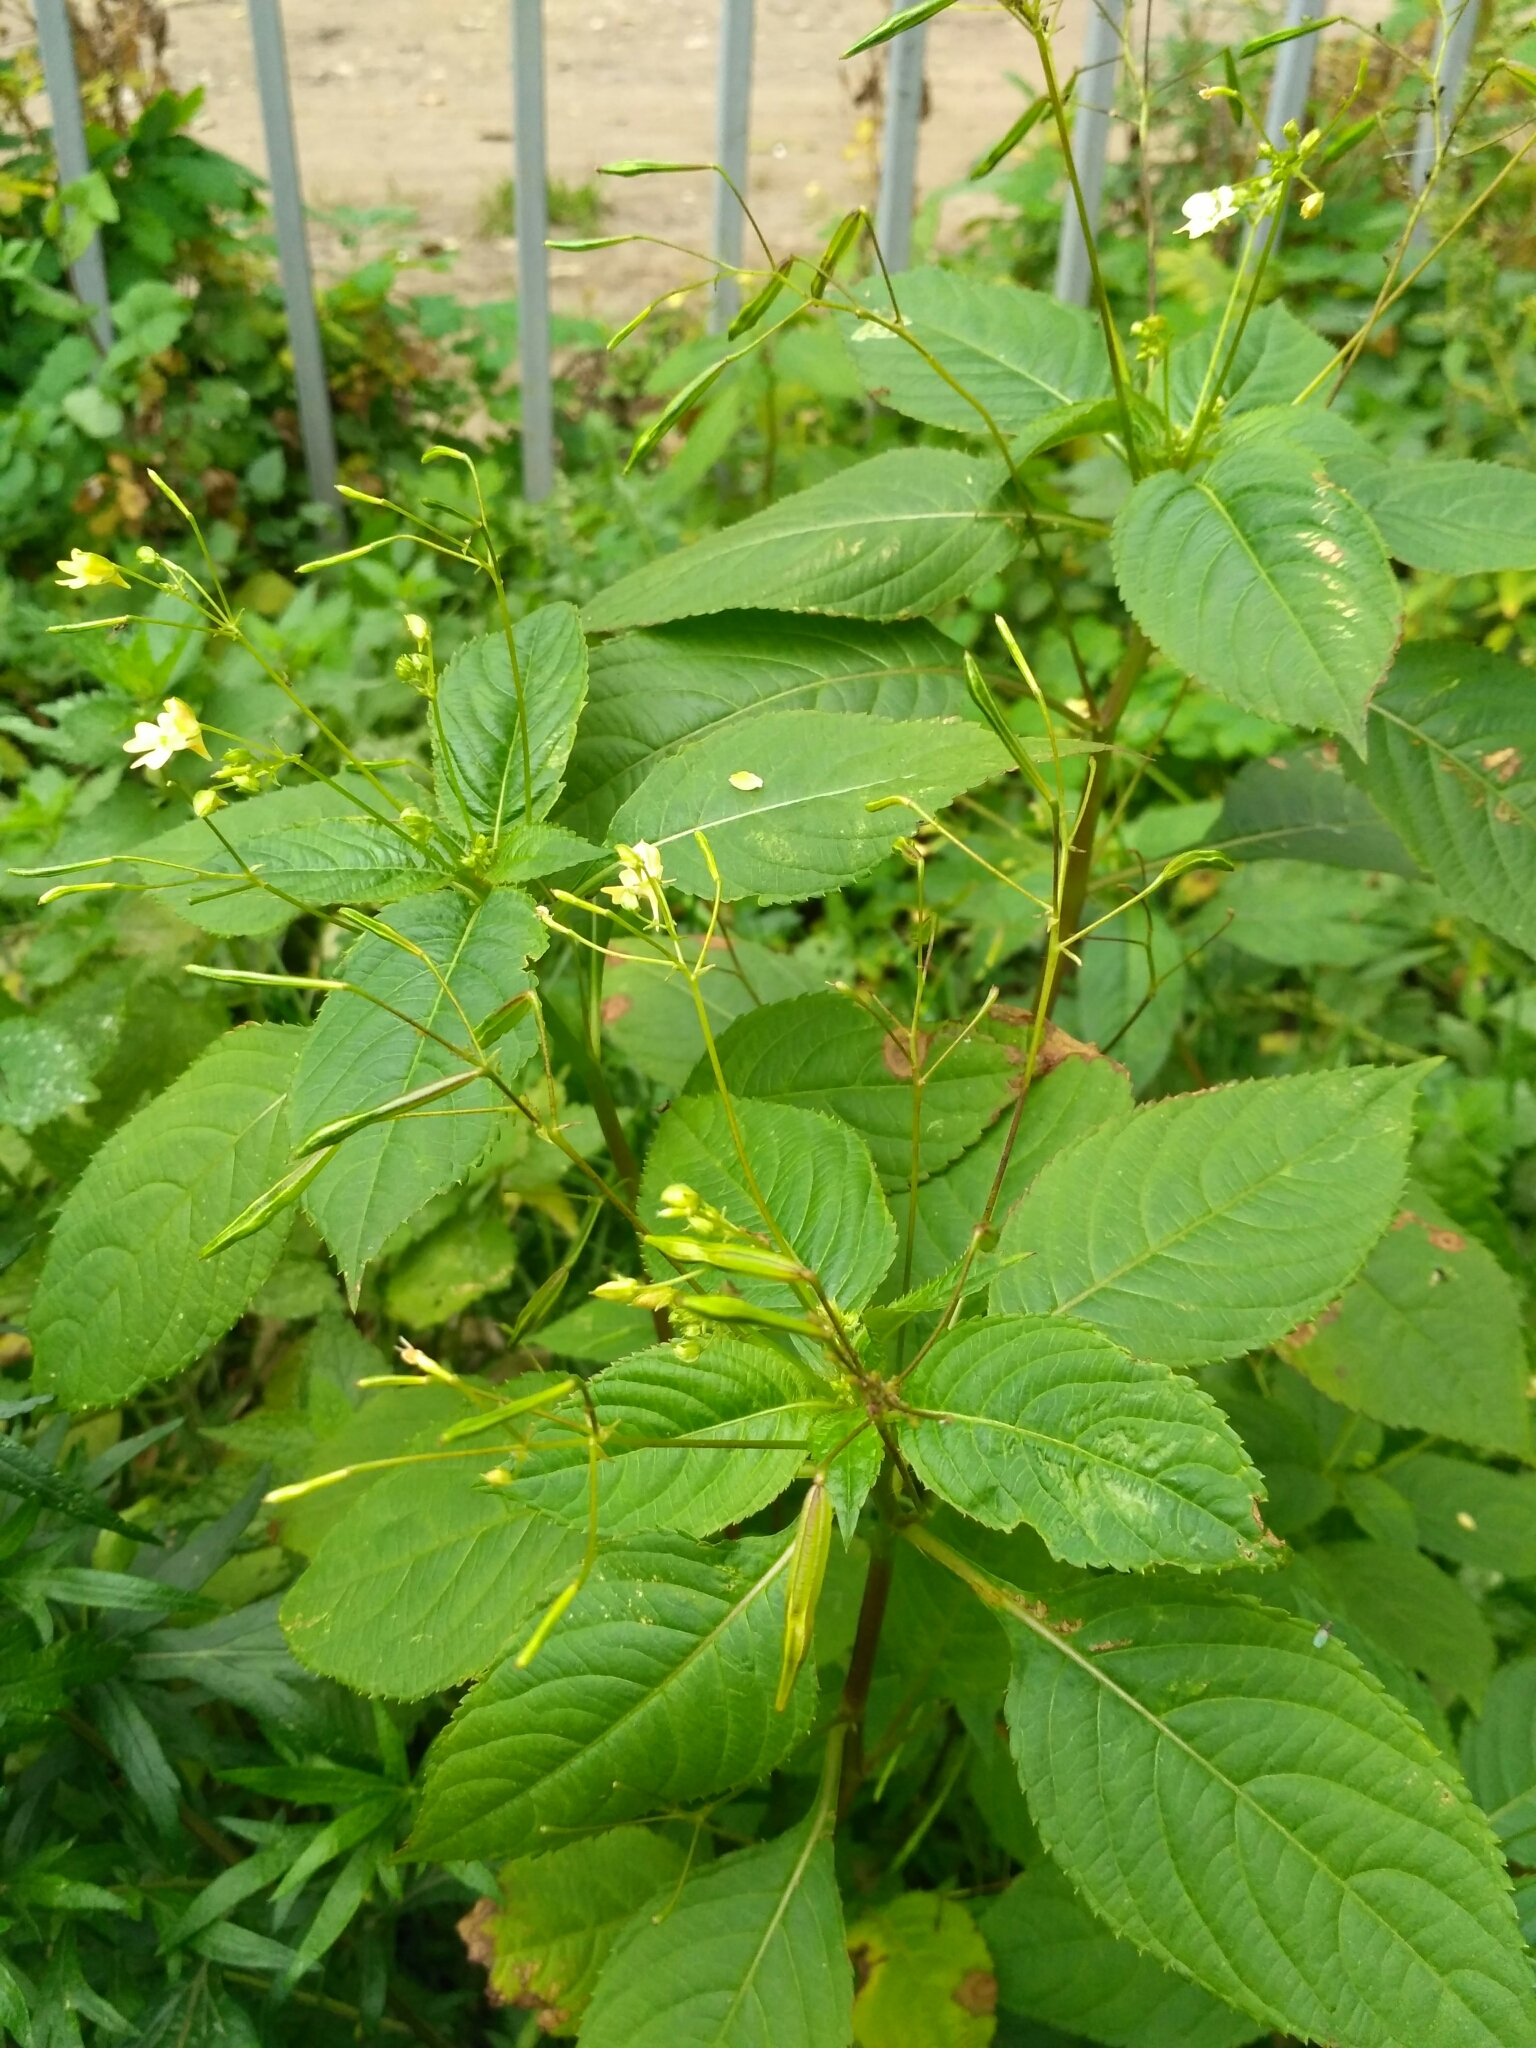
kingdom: Plantae
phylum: Tracheophyta
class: Magnoliopsida
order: Ericales
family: Balsaminaceae
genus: Impatiens
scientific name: Impatiens parviflora
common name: Small balsam
